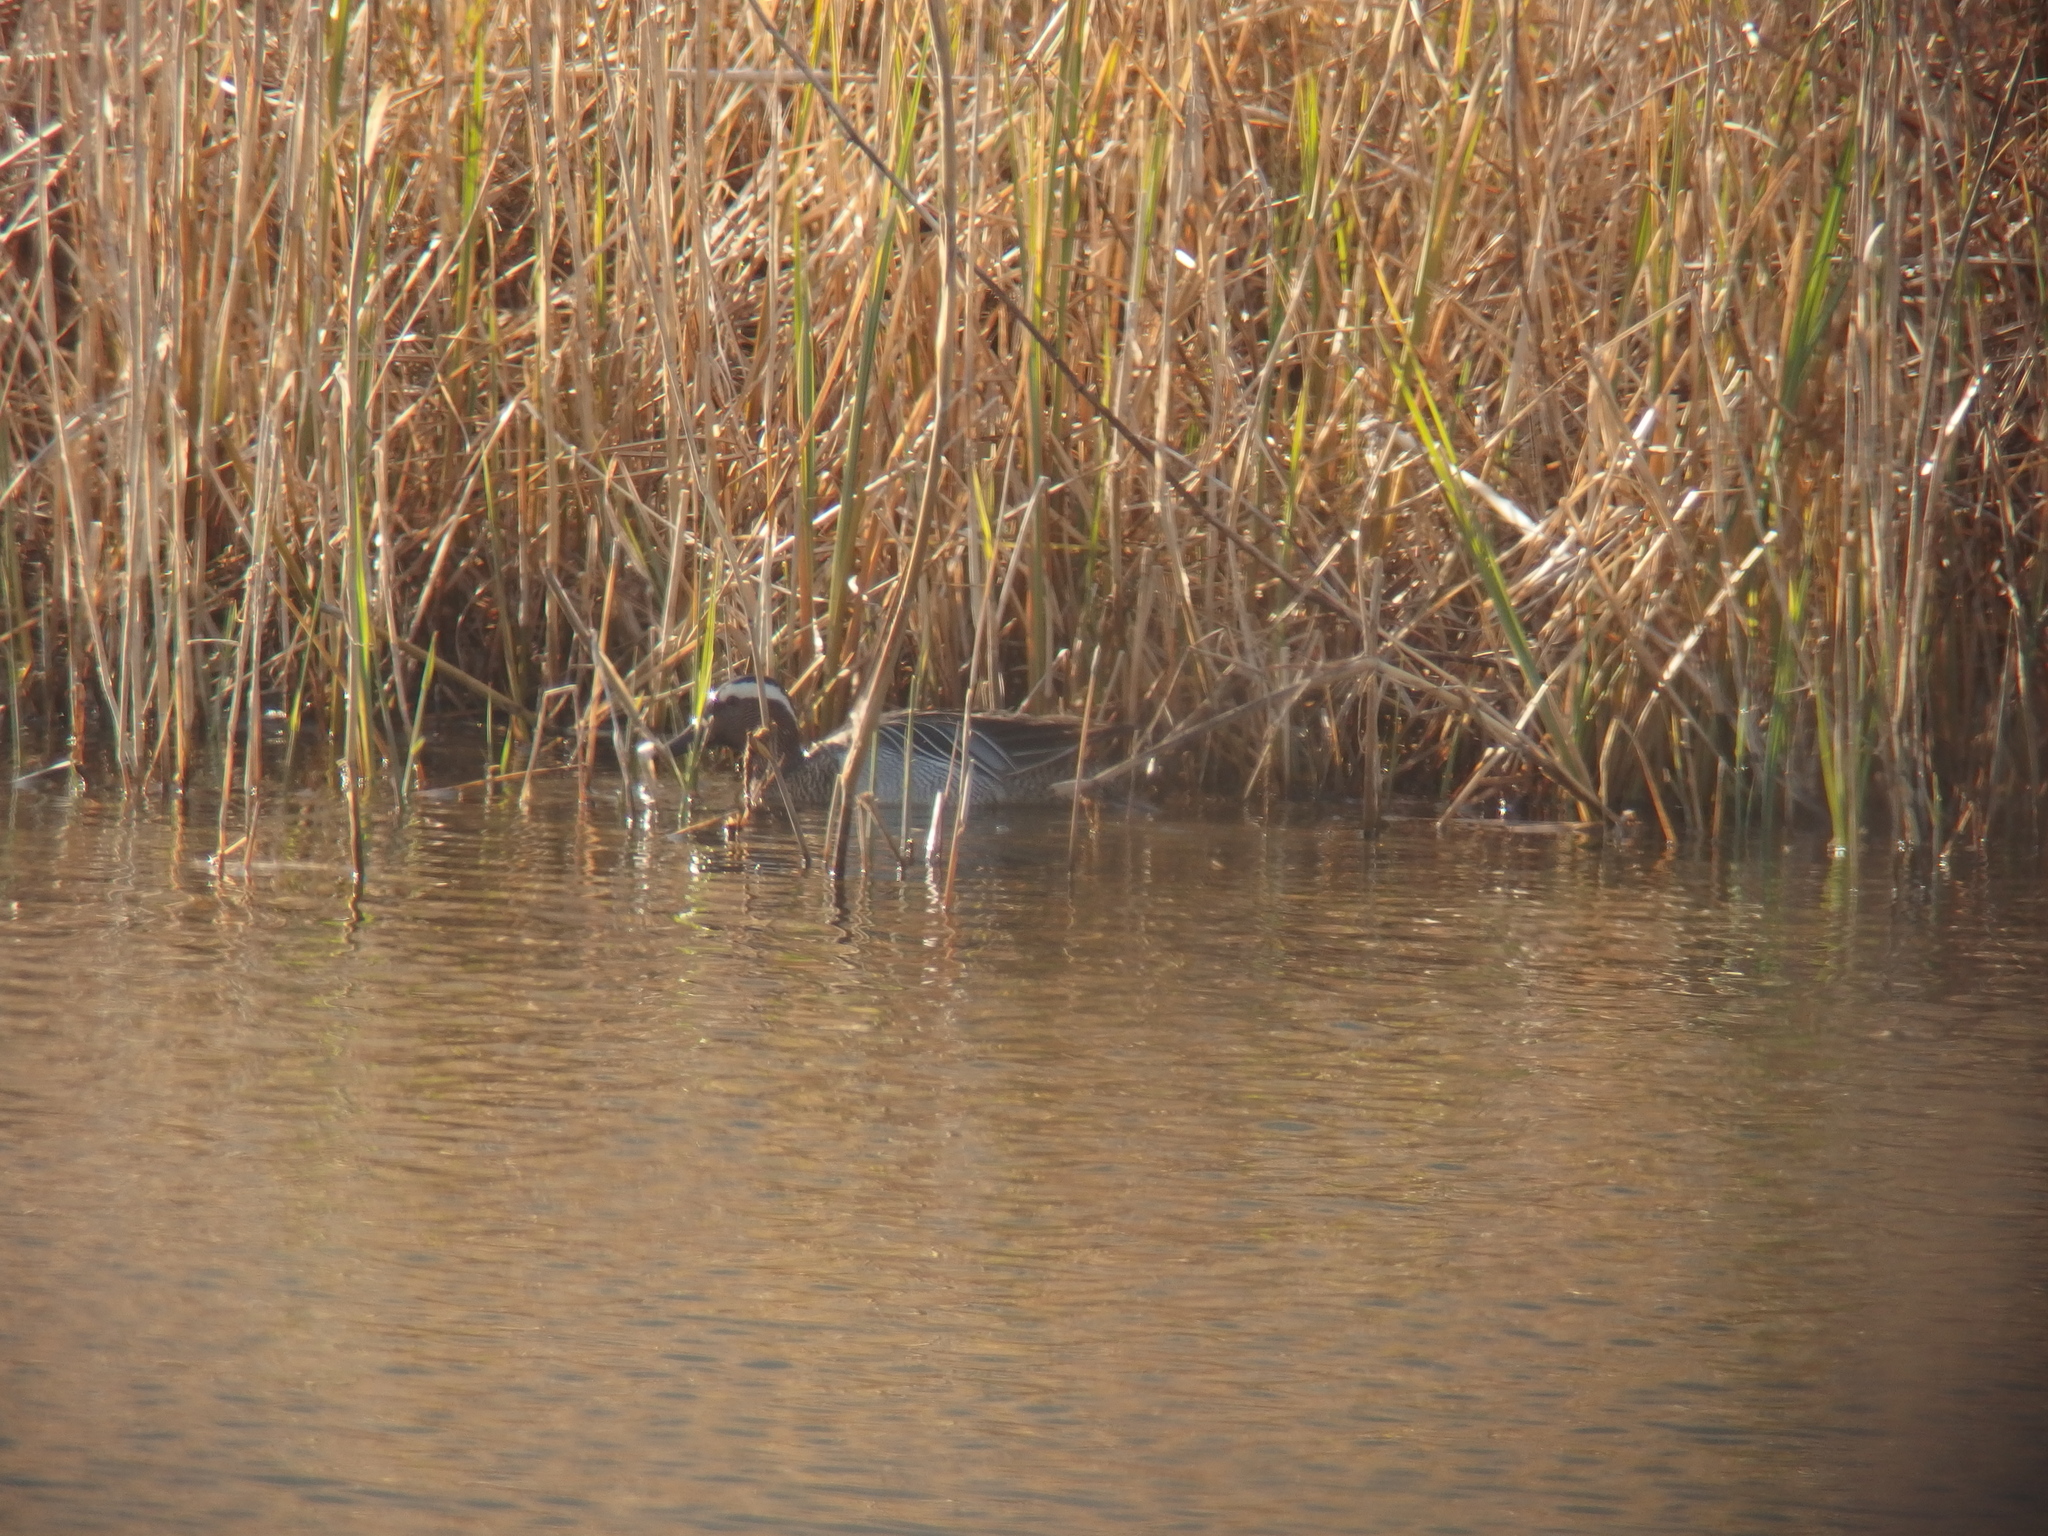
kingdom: Animalia
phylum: Chordata
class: Aves
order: Anseriformes
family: Anatidae
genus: Spatula
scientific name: Spatula querquedula
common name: Garganey
